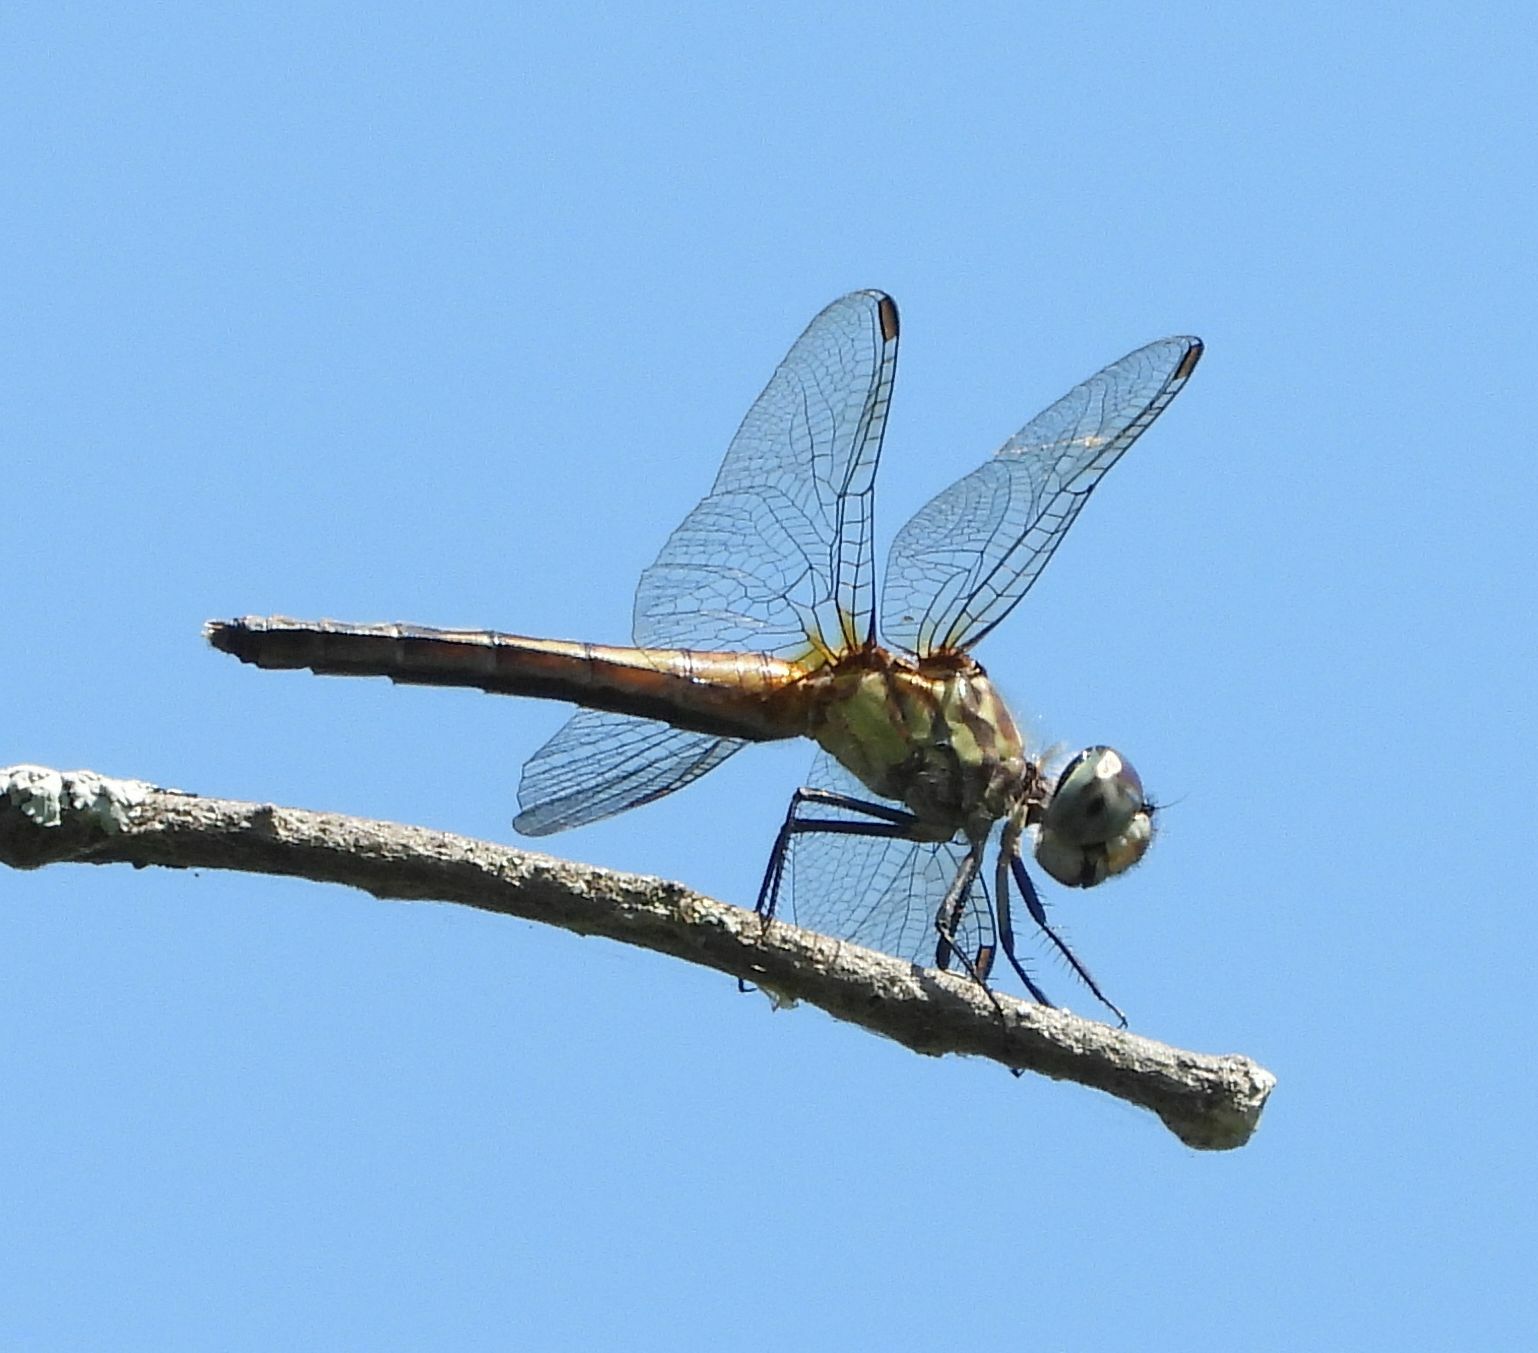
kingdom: Animalia
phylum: Arthropoda
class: Insecta
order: Odonata
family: Libellulidae
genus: Pachydiplax
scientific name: Pachydiplax longipennis
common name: Blue dasher
